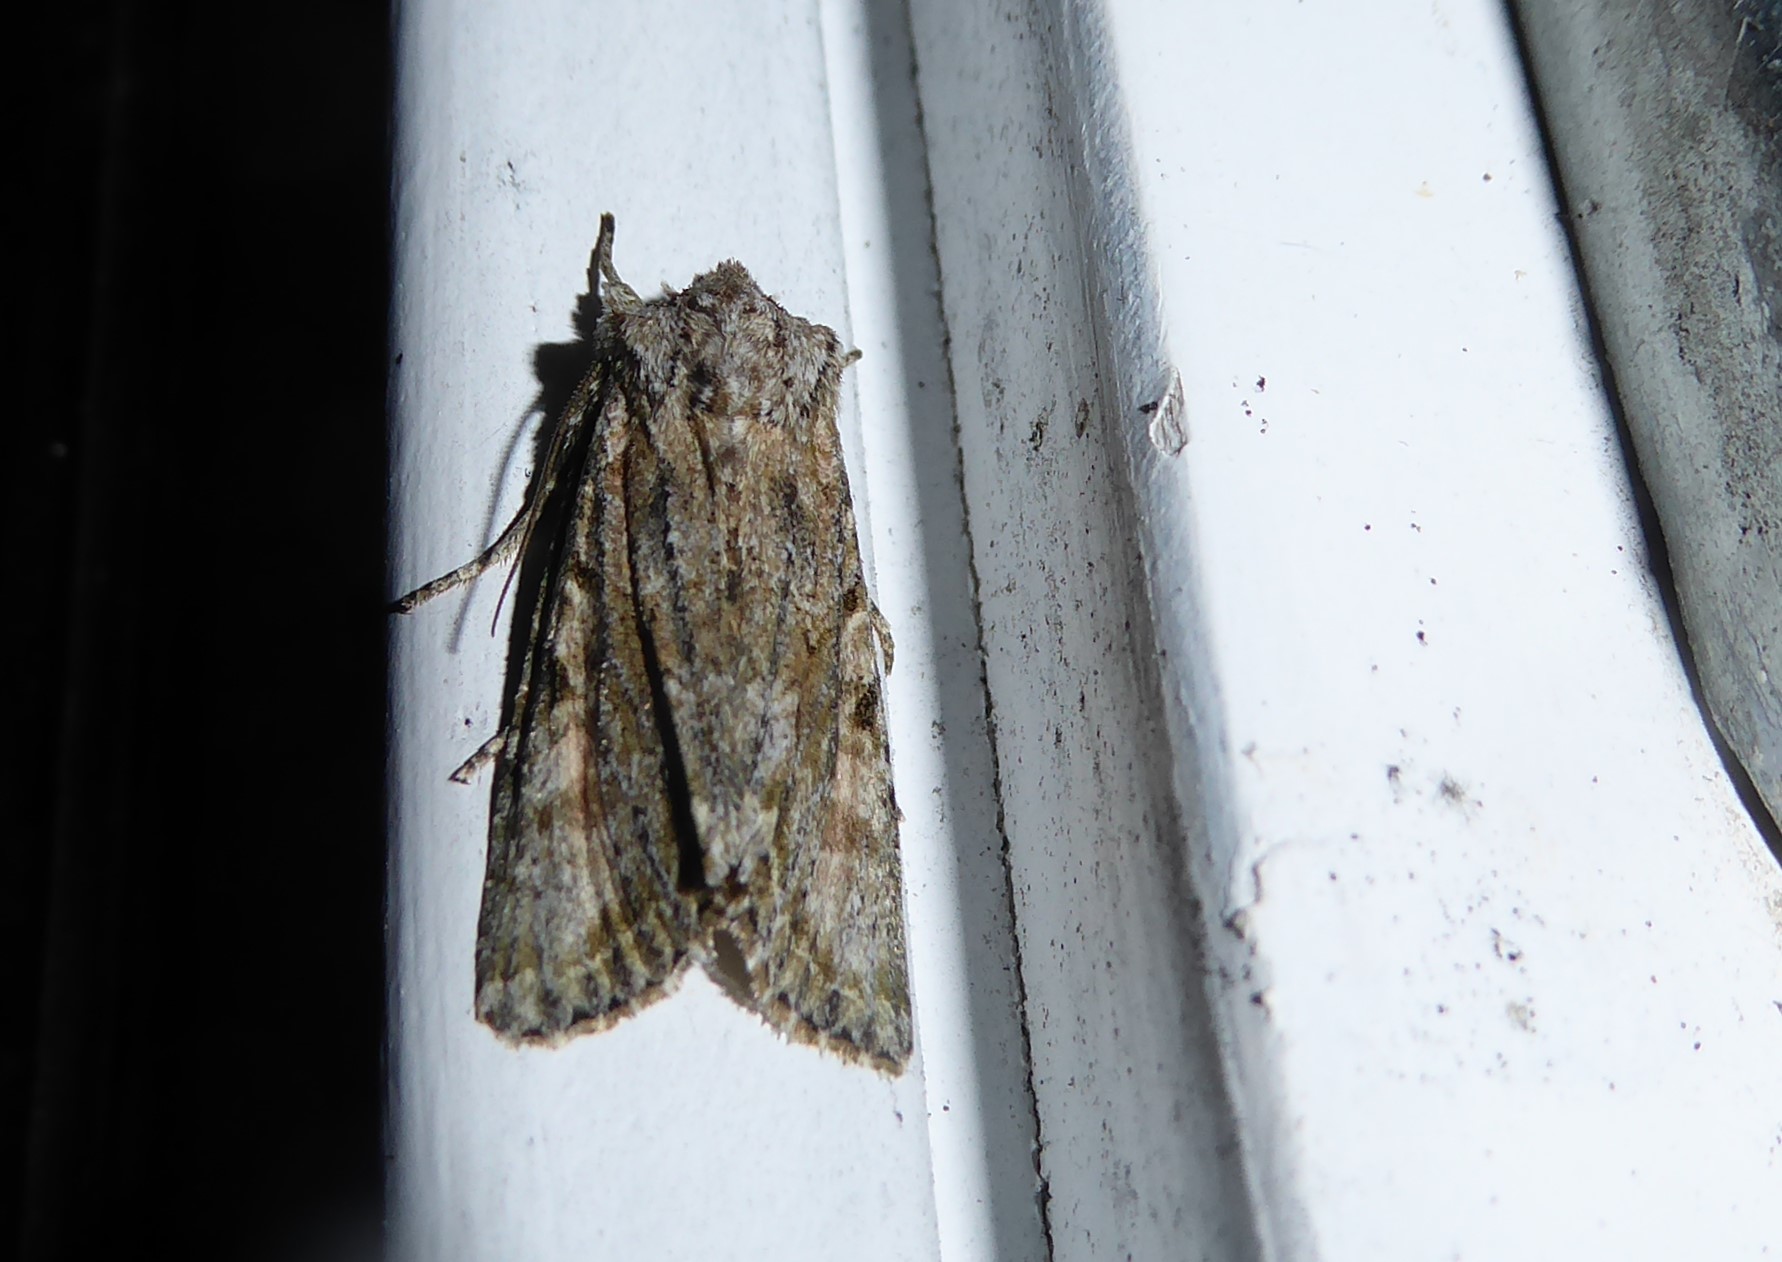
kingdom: Animalia
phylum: Arthropoda
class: Insecta
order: Lepidoptera
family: Noctuidae
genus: Ichneutica
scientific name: Ichneutica mutans
